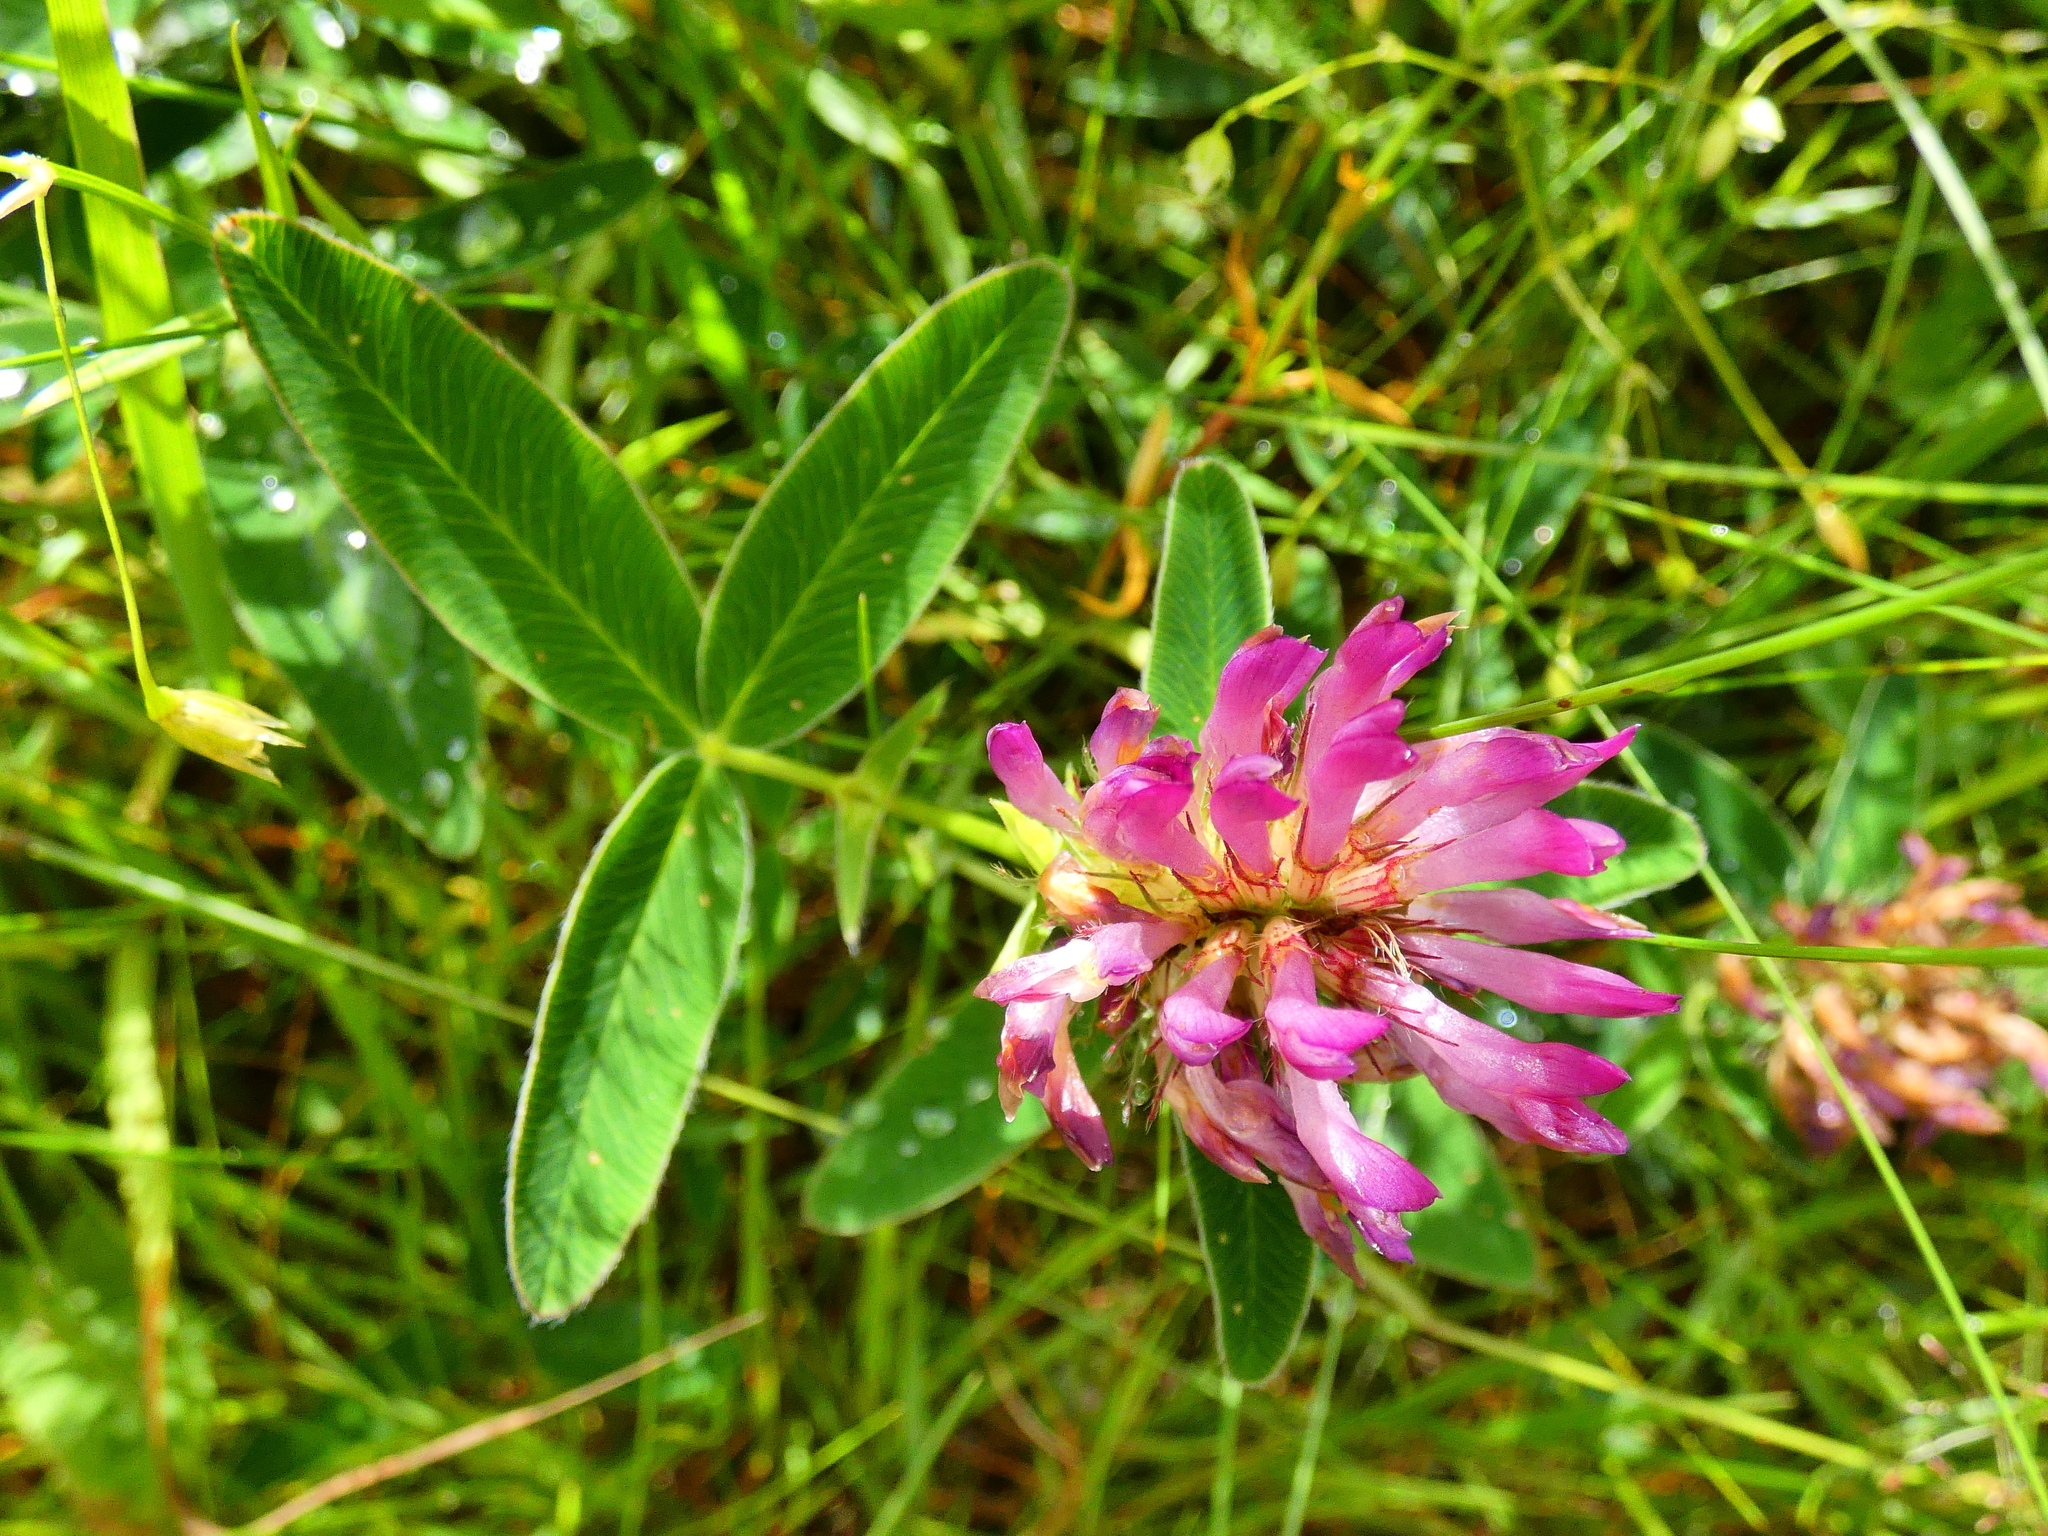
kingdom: Plantae
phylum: Tracheophyta
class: Magnoliopsida
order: Fabales
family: Fabaceae
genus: Trifolium
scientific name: Trifolium medium
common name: Zigzag clover
